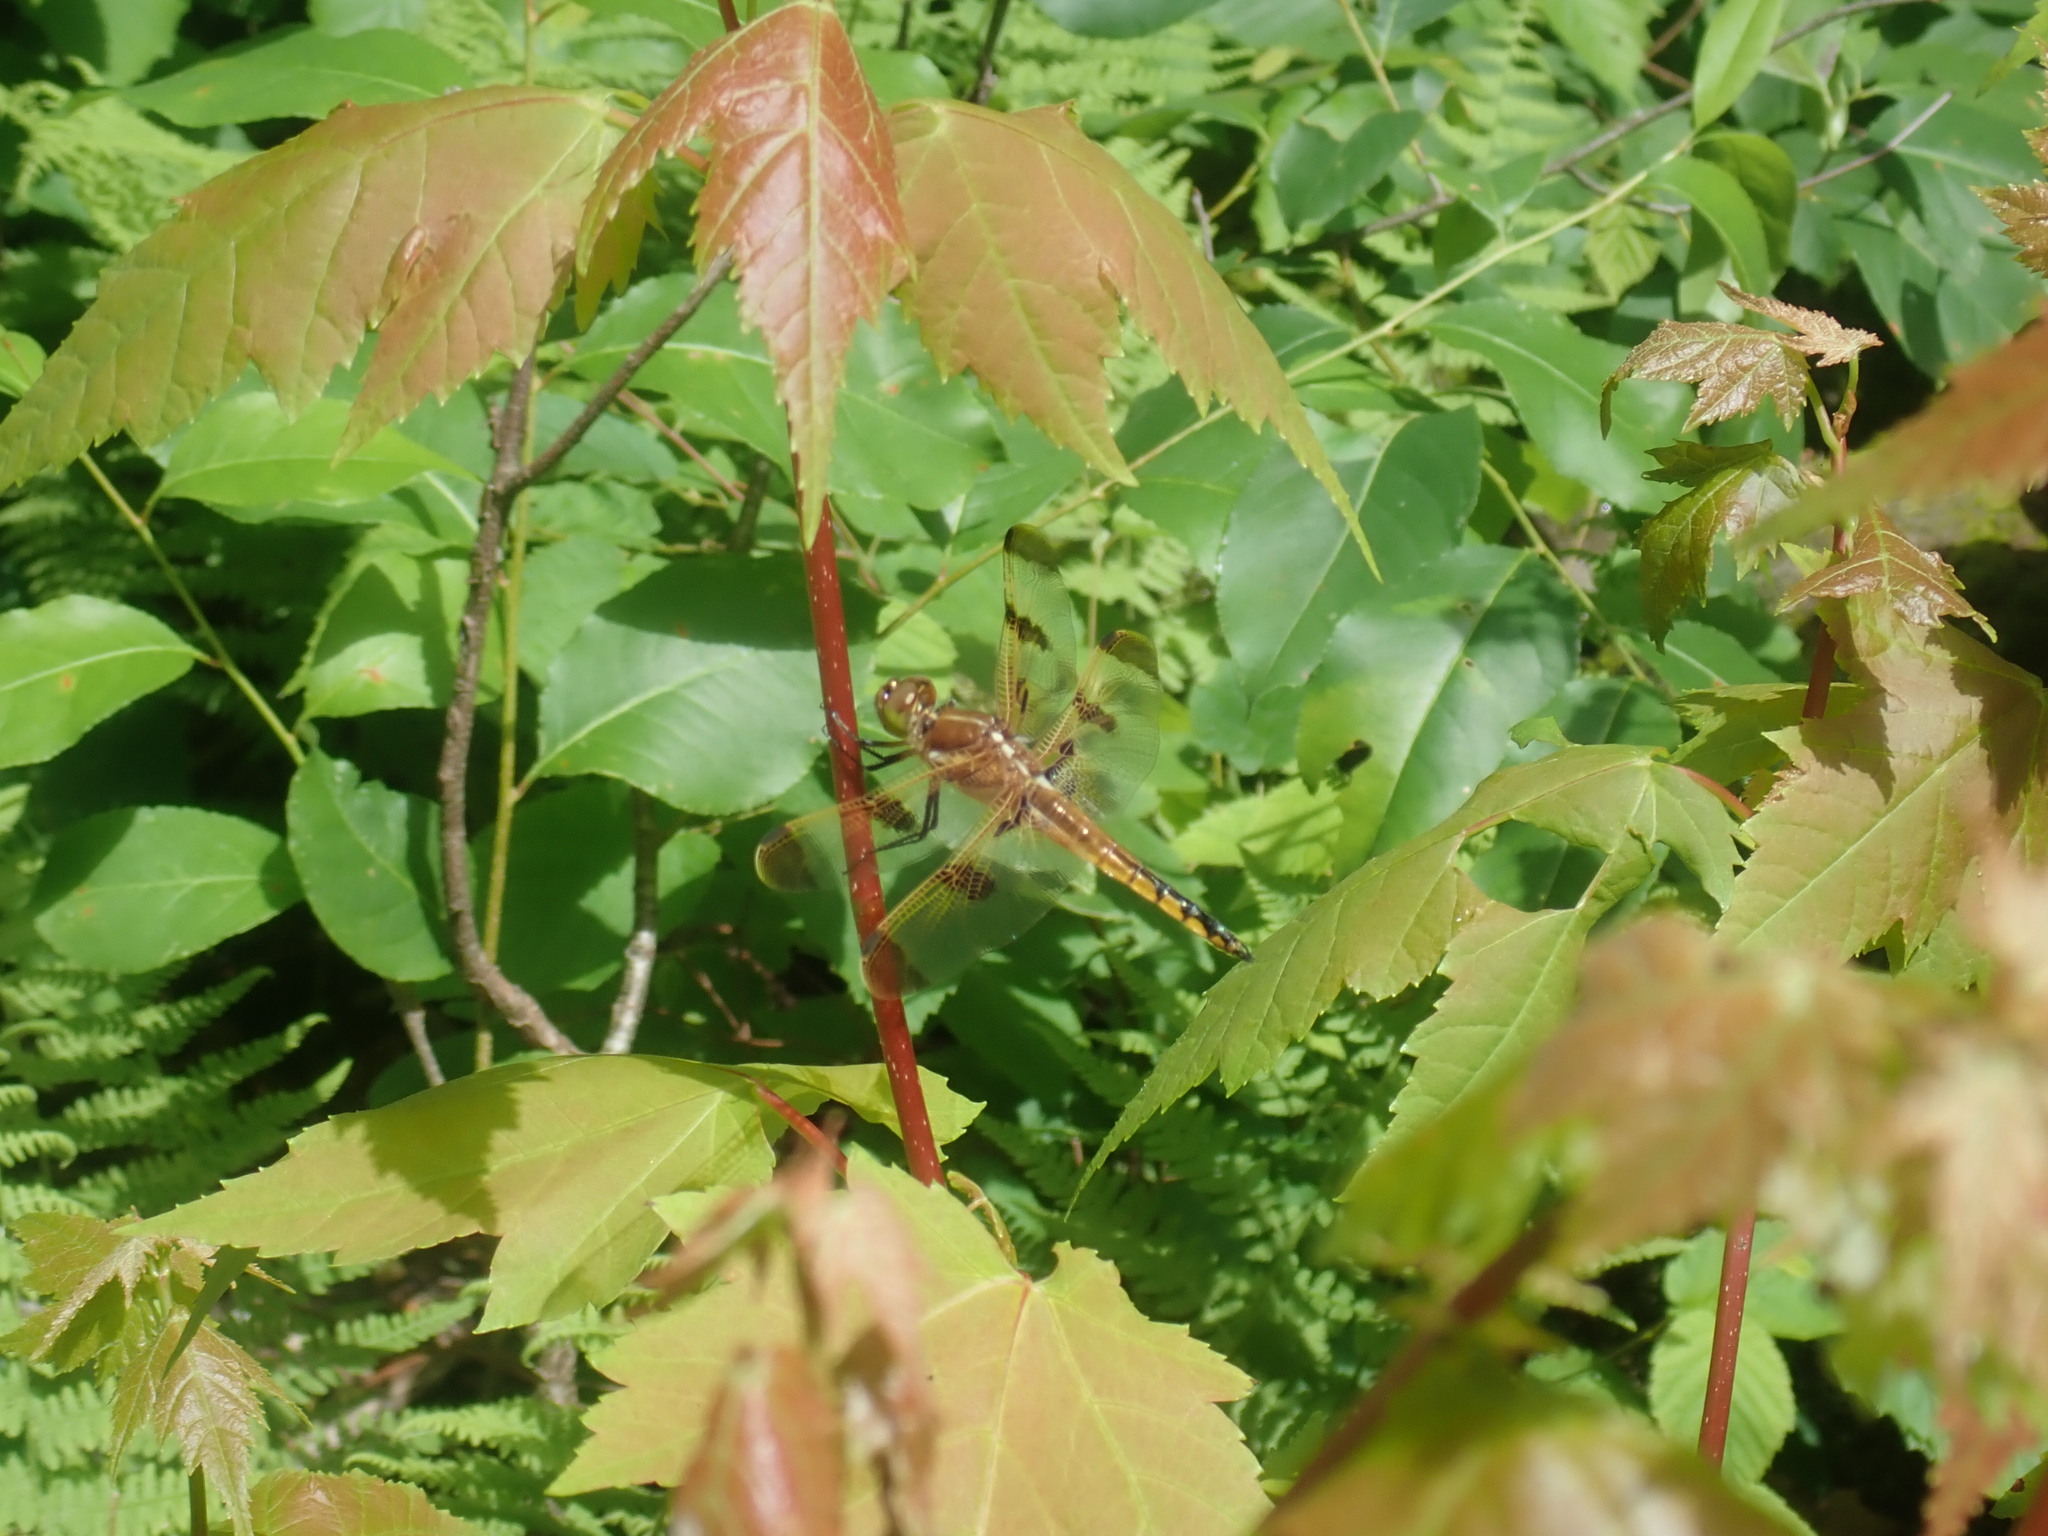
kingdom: Animalia
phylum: Arthropoda
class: Insecta
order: Odonata
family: Libellulidae
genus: Libellula
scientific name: Libellula semifasciata
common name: Painted skimmer
